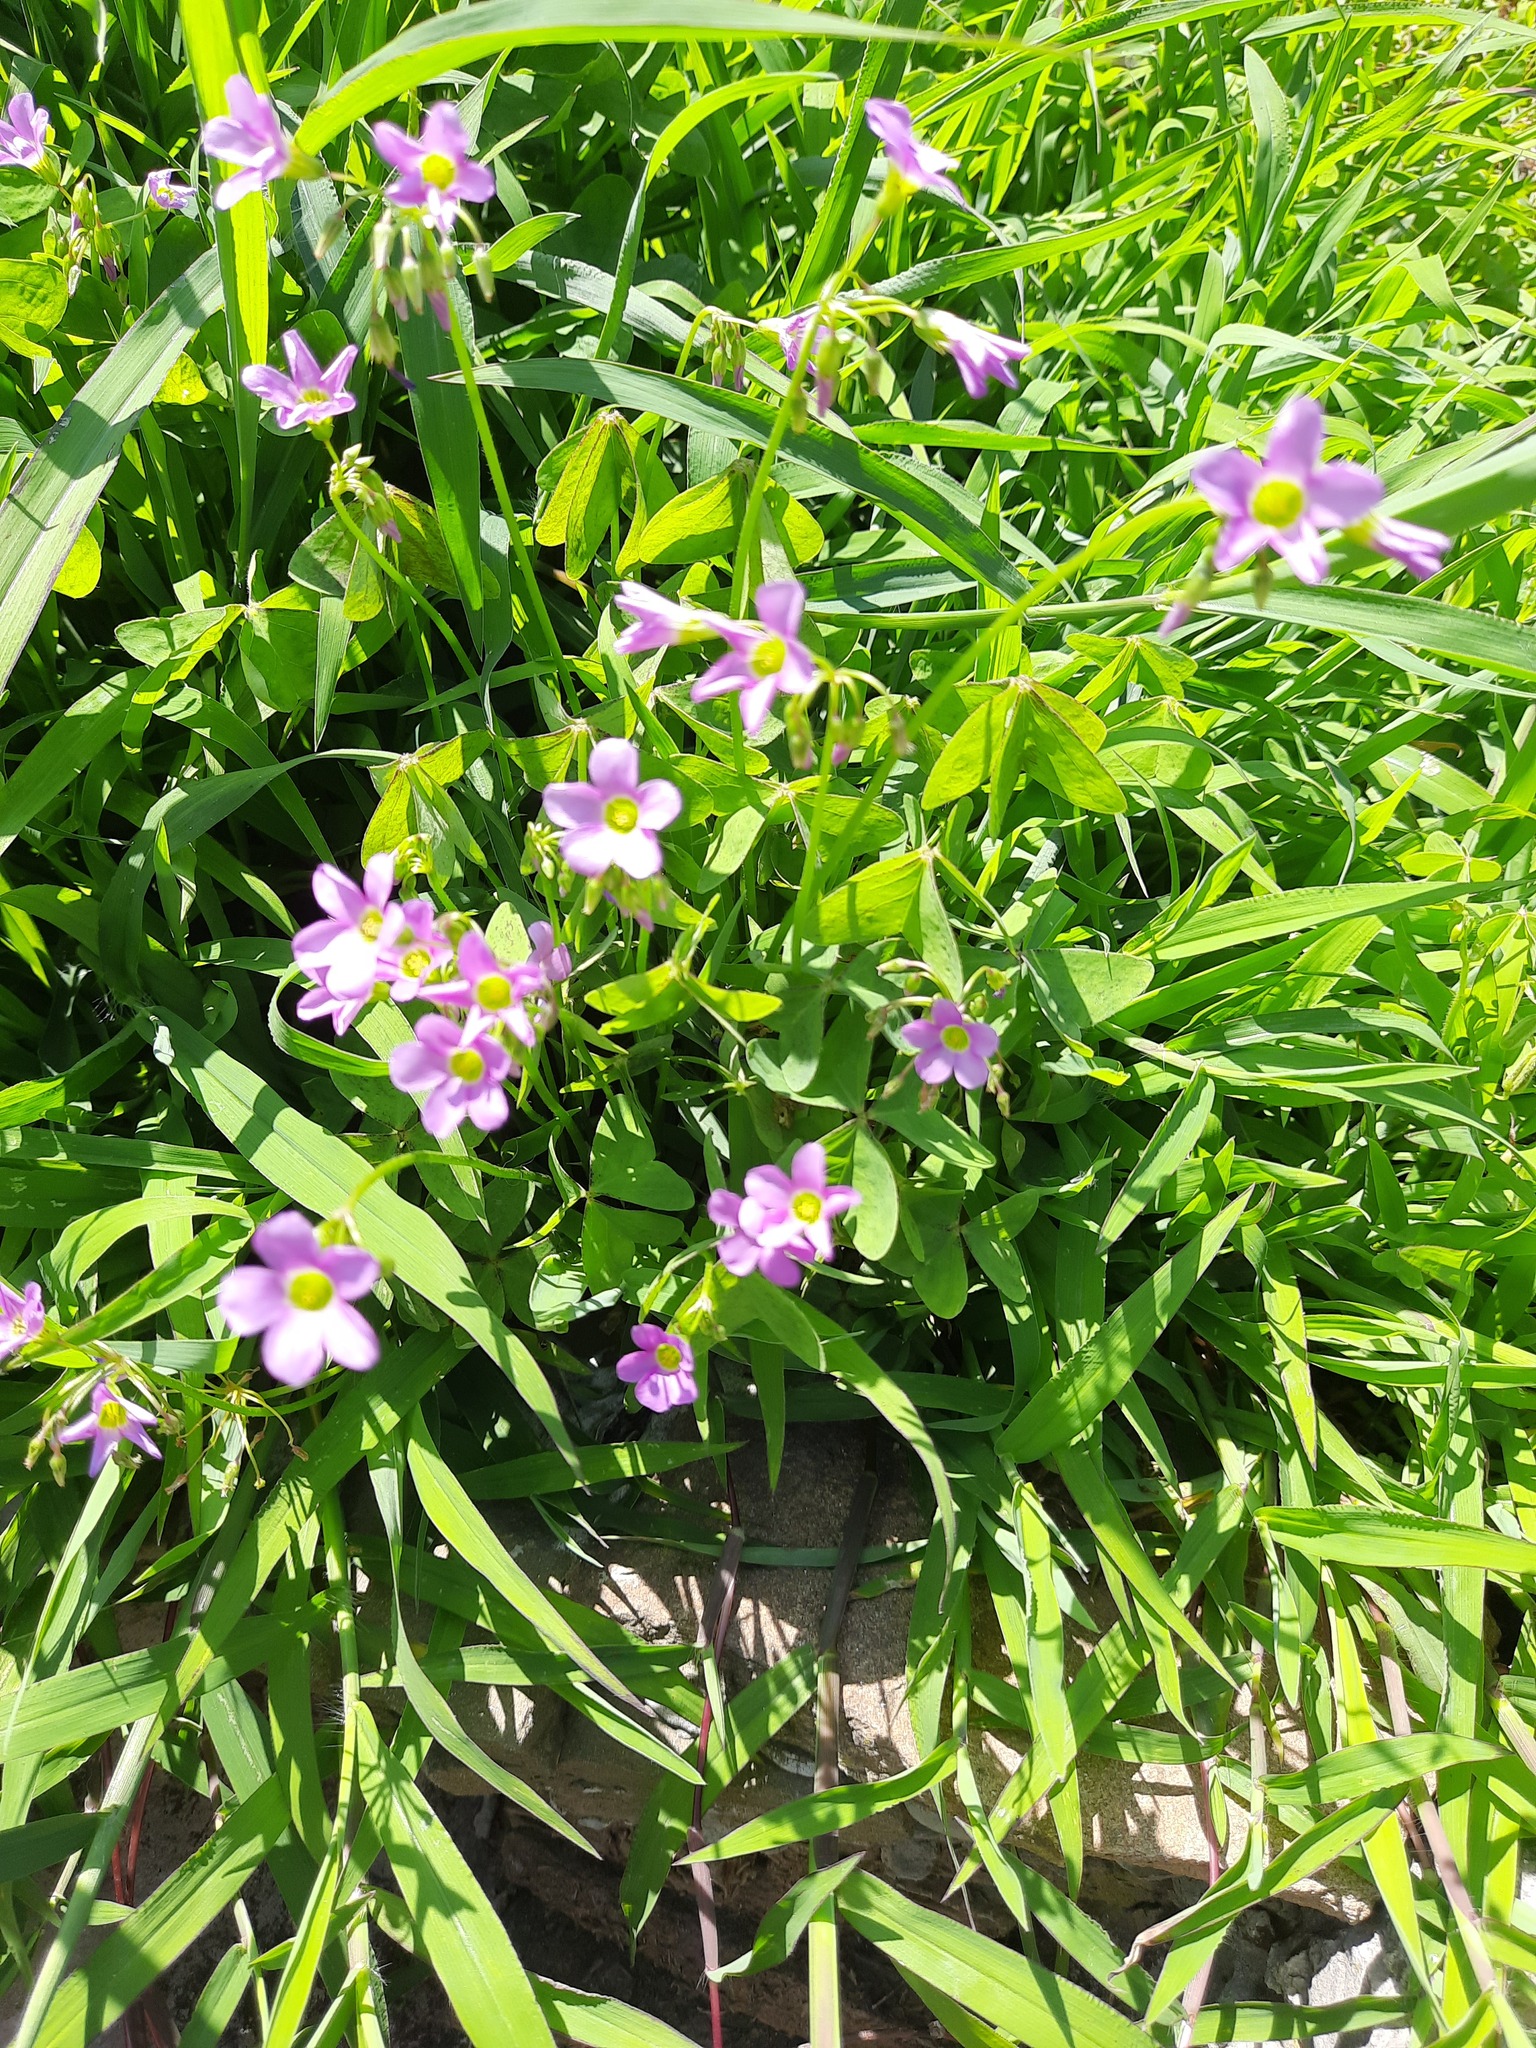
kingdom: Plantae
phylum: Tracheophyta
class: Magnoliopsida
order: Oxalidales
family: Oxalidaceae
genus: Oxalis
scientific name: Oxalis latifolia
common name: Garden pink-sorrel
